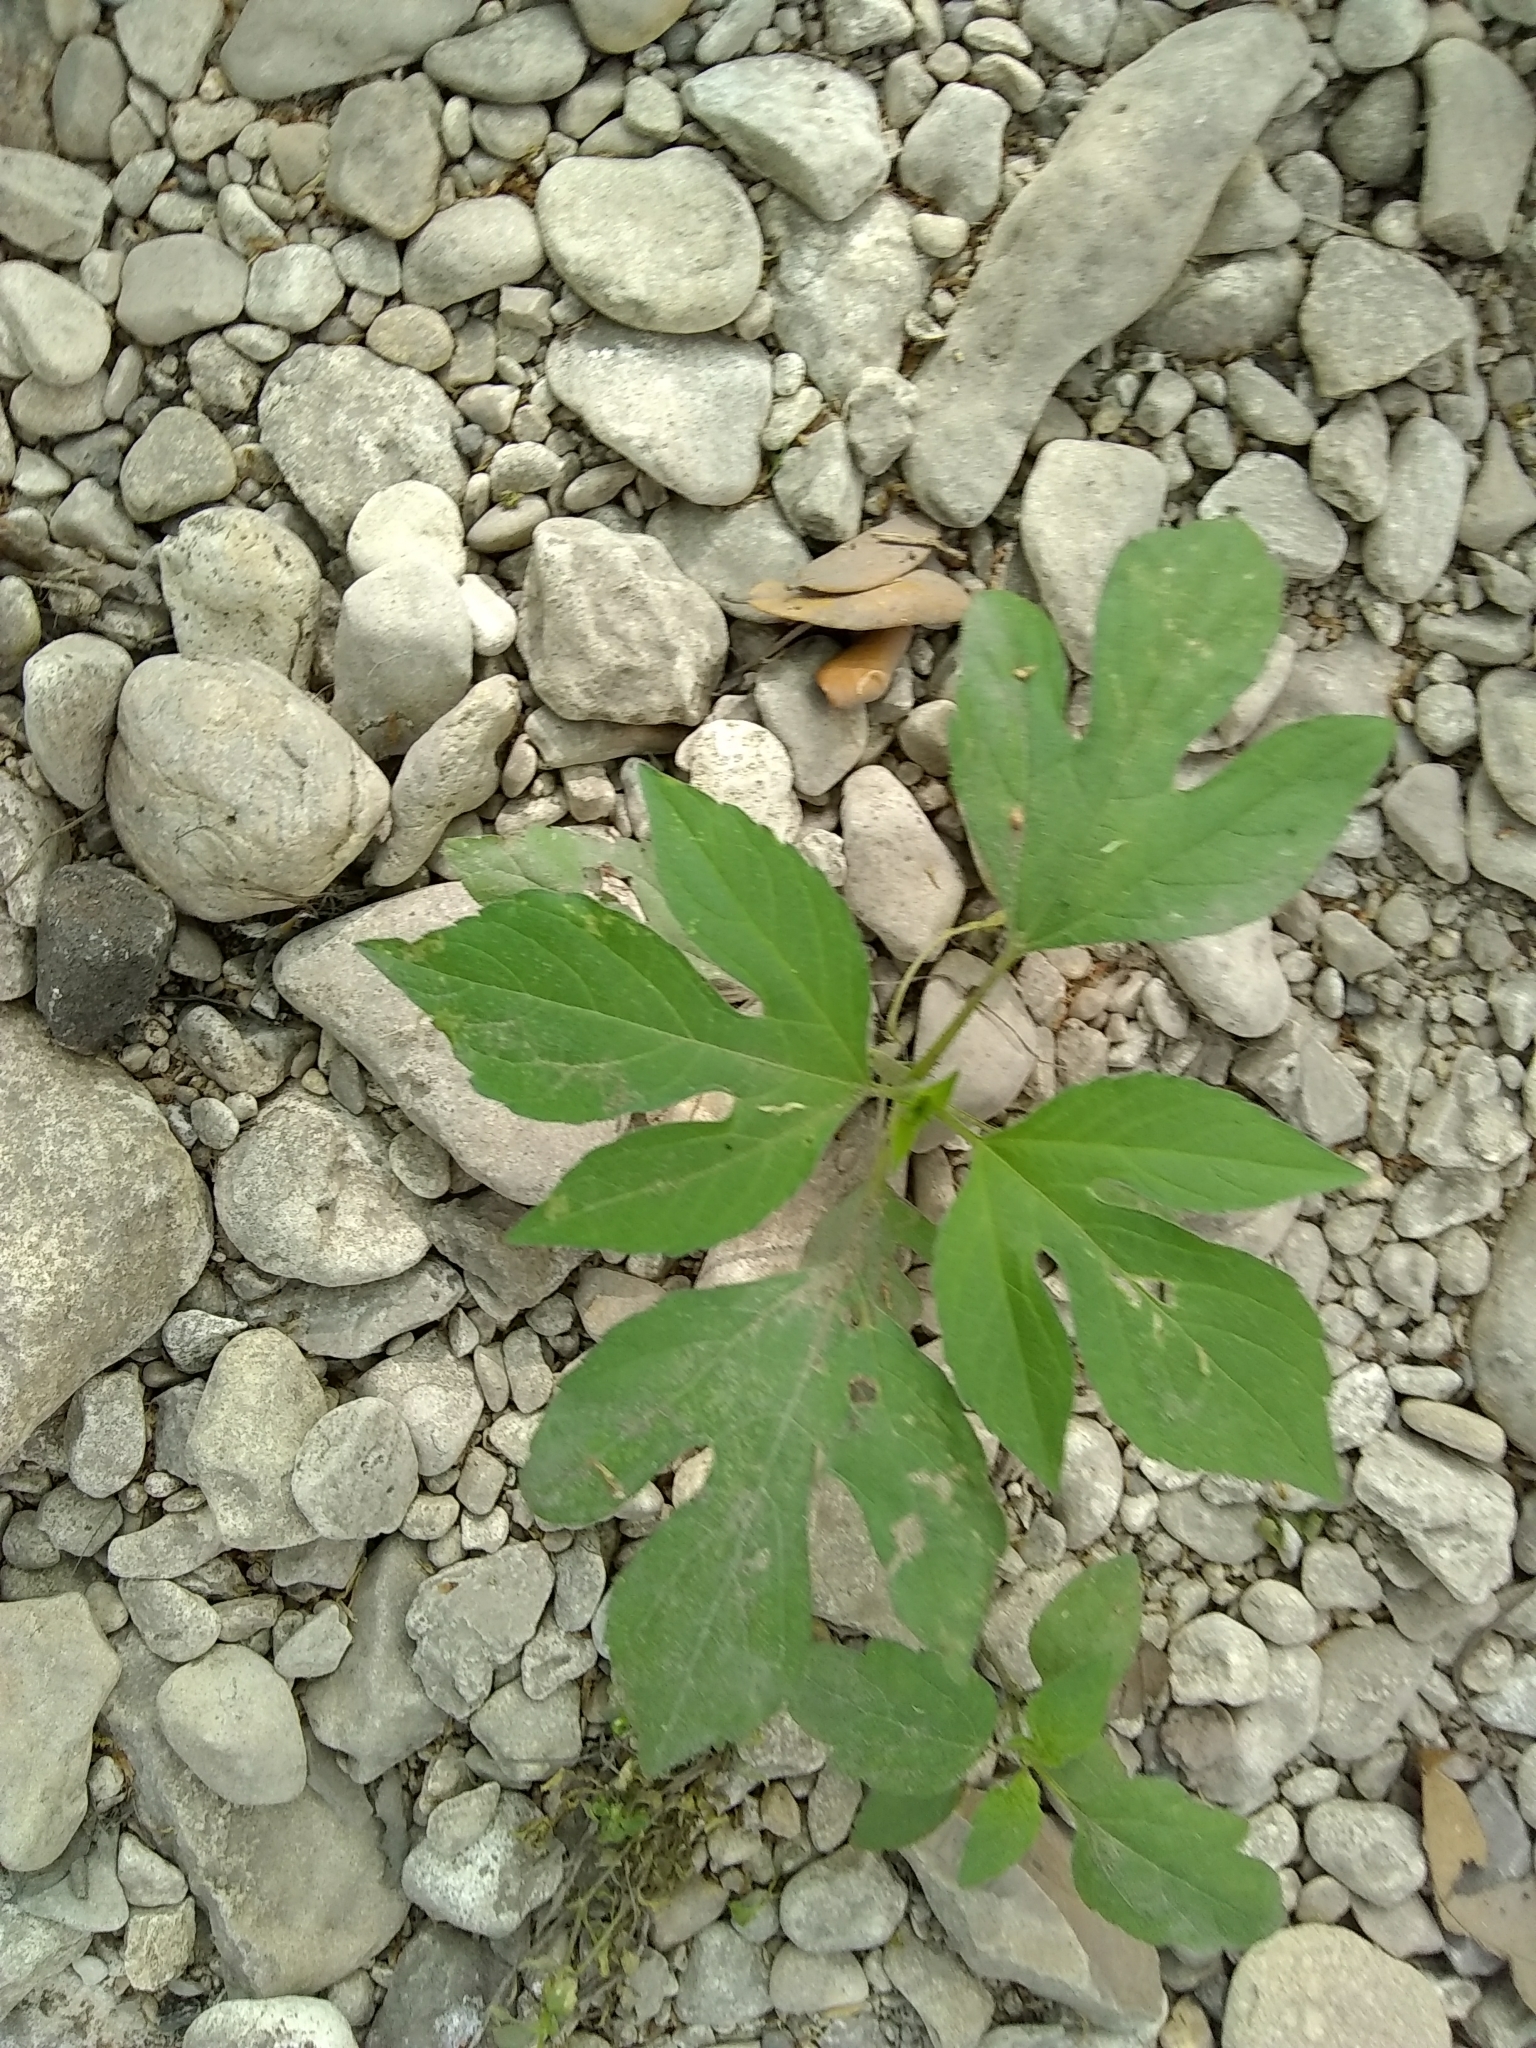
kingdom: Plantae
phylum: Tracheophyta
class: Magnoliopsida
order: Asterales
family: Asteraceae
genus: Ambrosia
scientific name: Ambrosia trifida
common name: Giant ragweed
